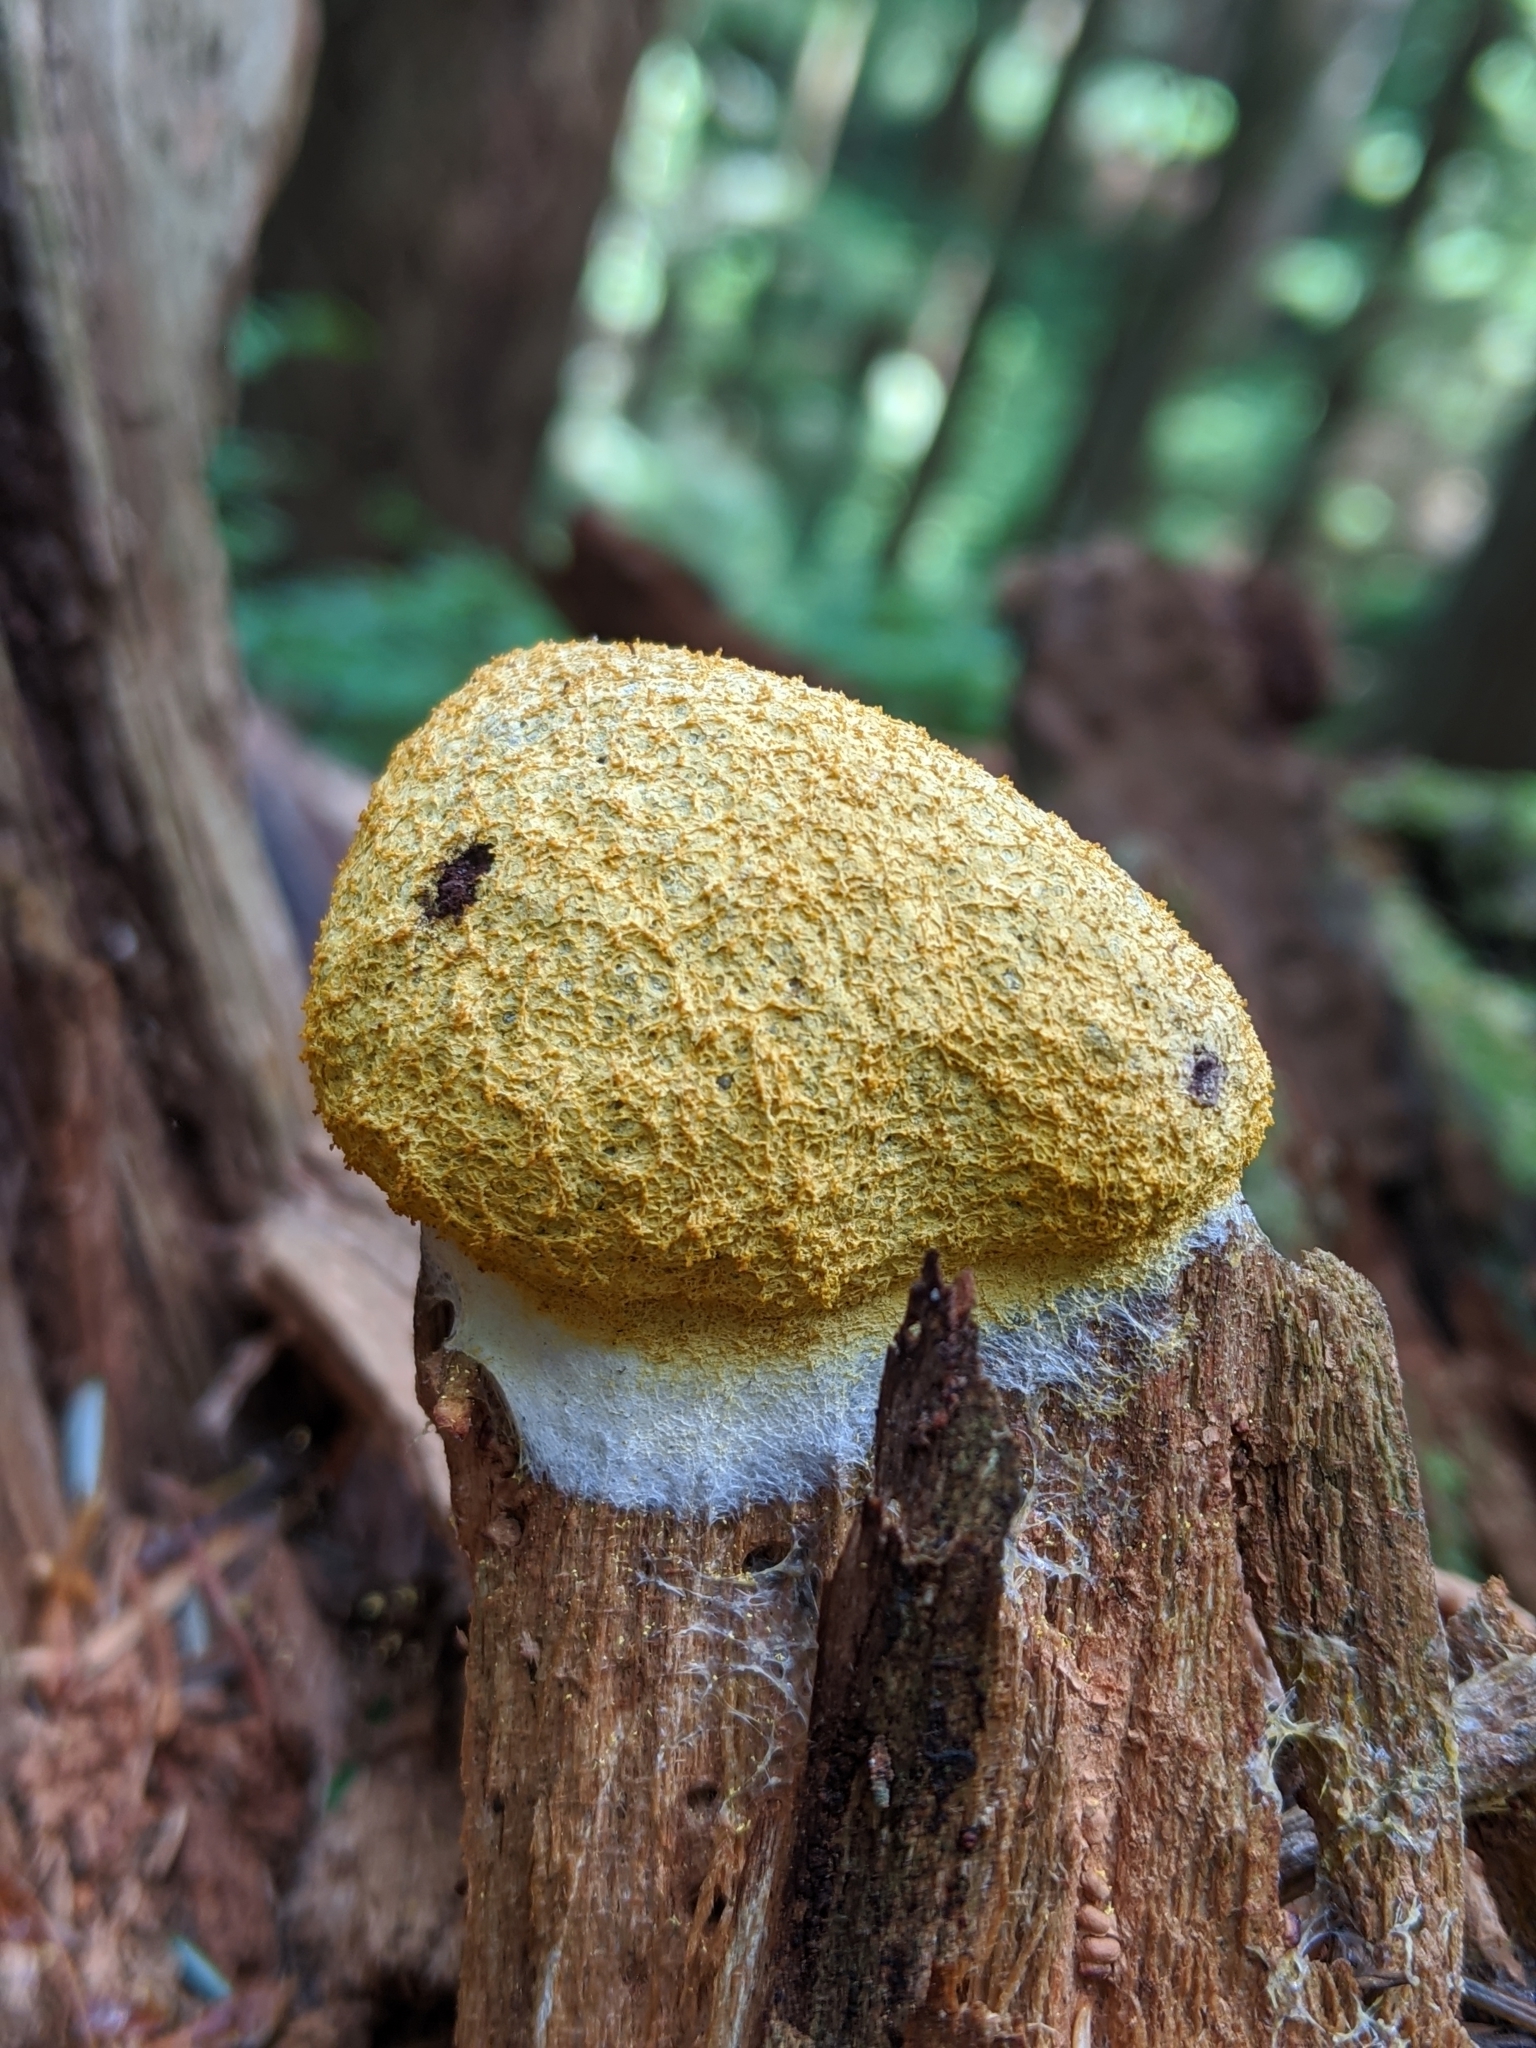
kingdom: Protozoa
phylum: Mycetozoa
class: Myxomycetes
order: Physarales
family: Physaraceae
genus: Fuligo
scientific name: Fuligo septica
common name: Dog vomit slime mold
